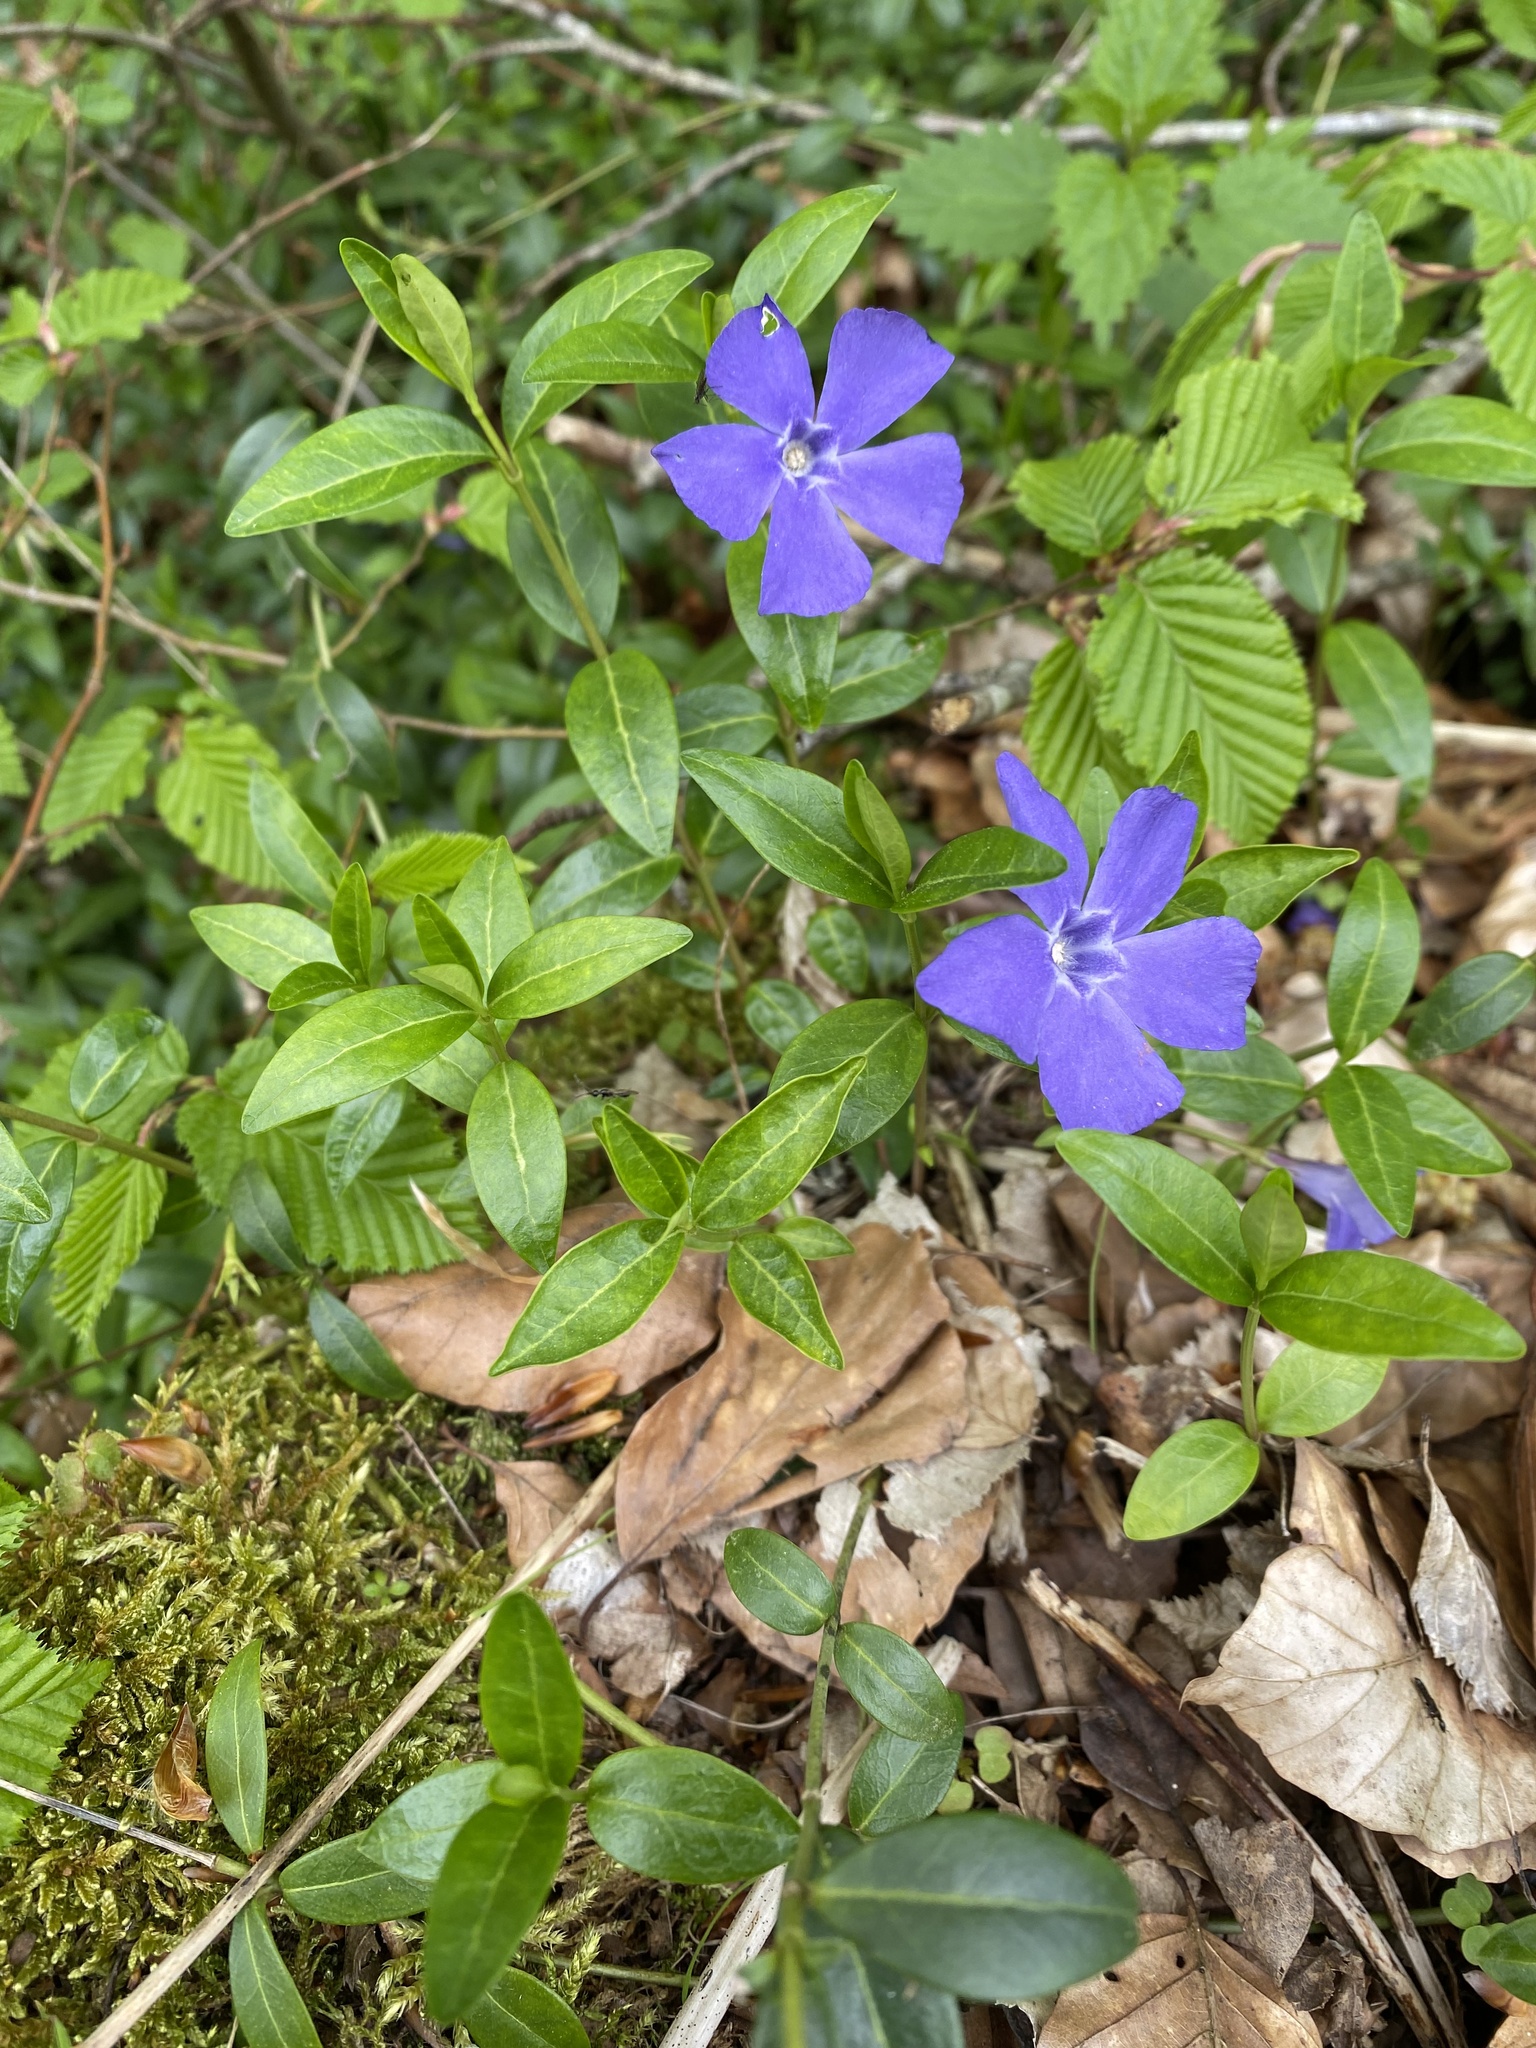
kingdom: Plantae
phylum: Tracheophyta
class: Magnoliopsida
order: Gentianales
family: Apocynaceae
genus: Vinca
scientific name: Vinca minor
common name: Lesser periwinkle
